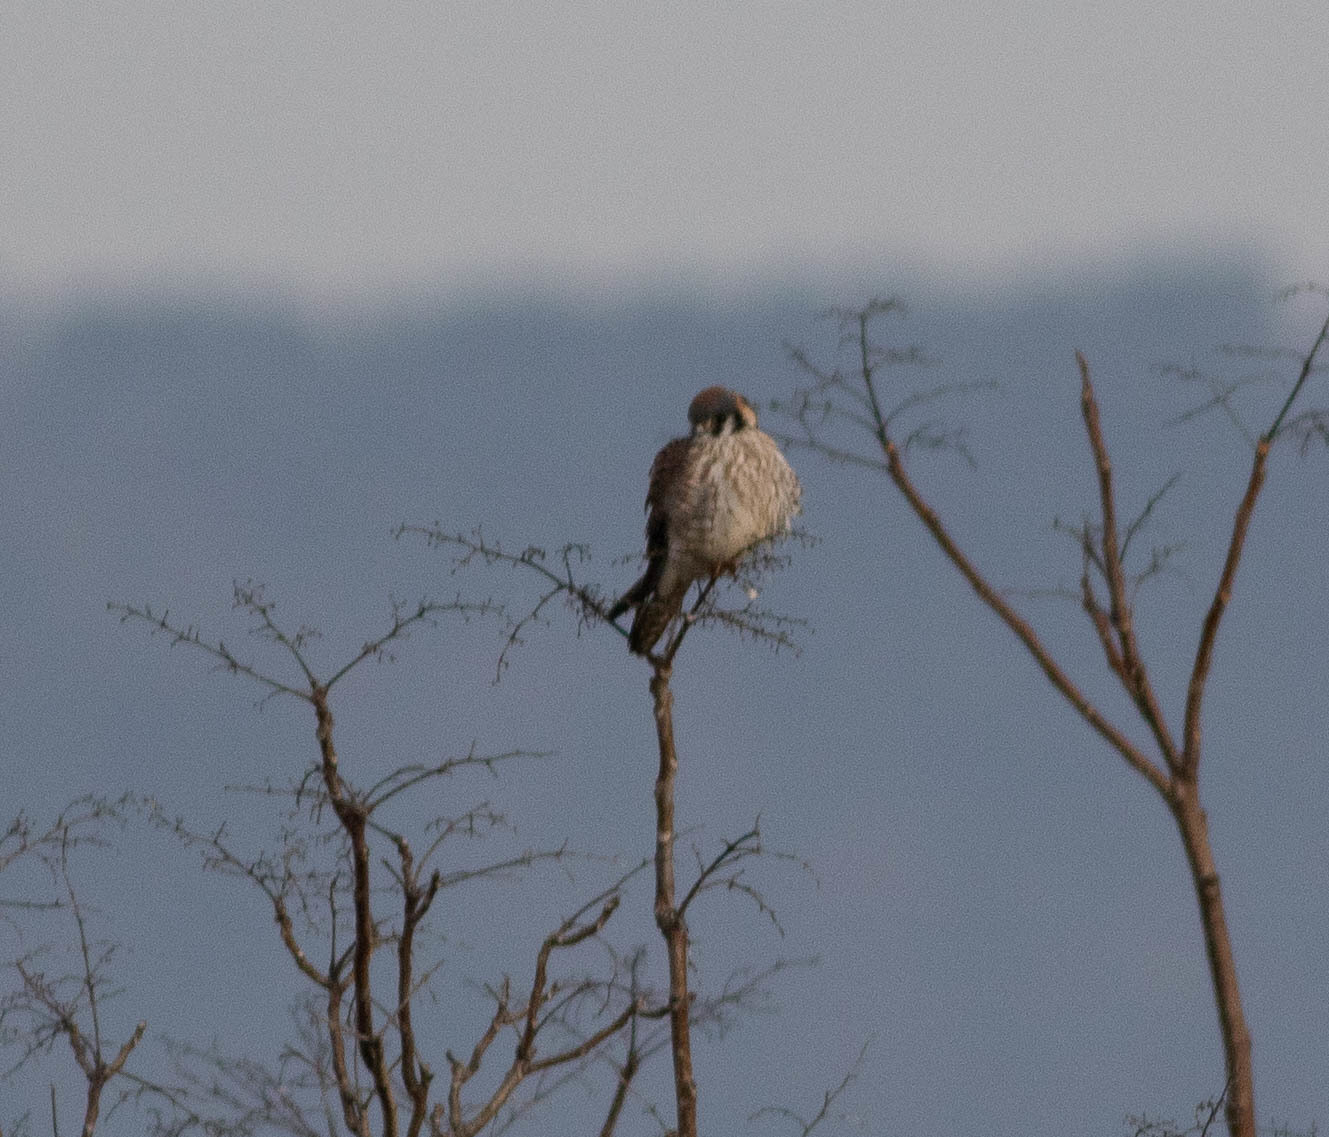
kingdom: Animalia
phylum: Chordata
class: Aves
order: Falconiformes
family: Falconidae
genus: Falco
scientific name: Falco sparverius
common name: American kestrel
